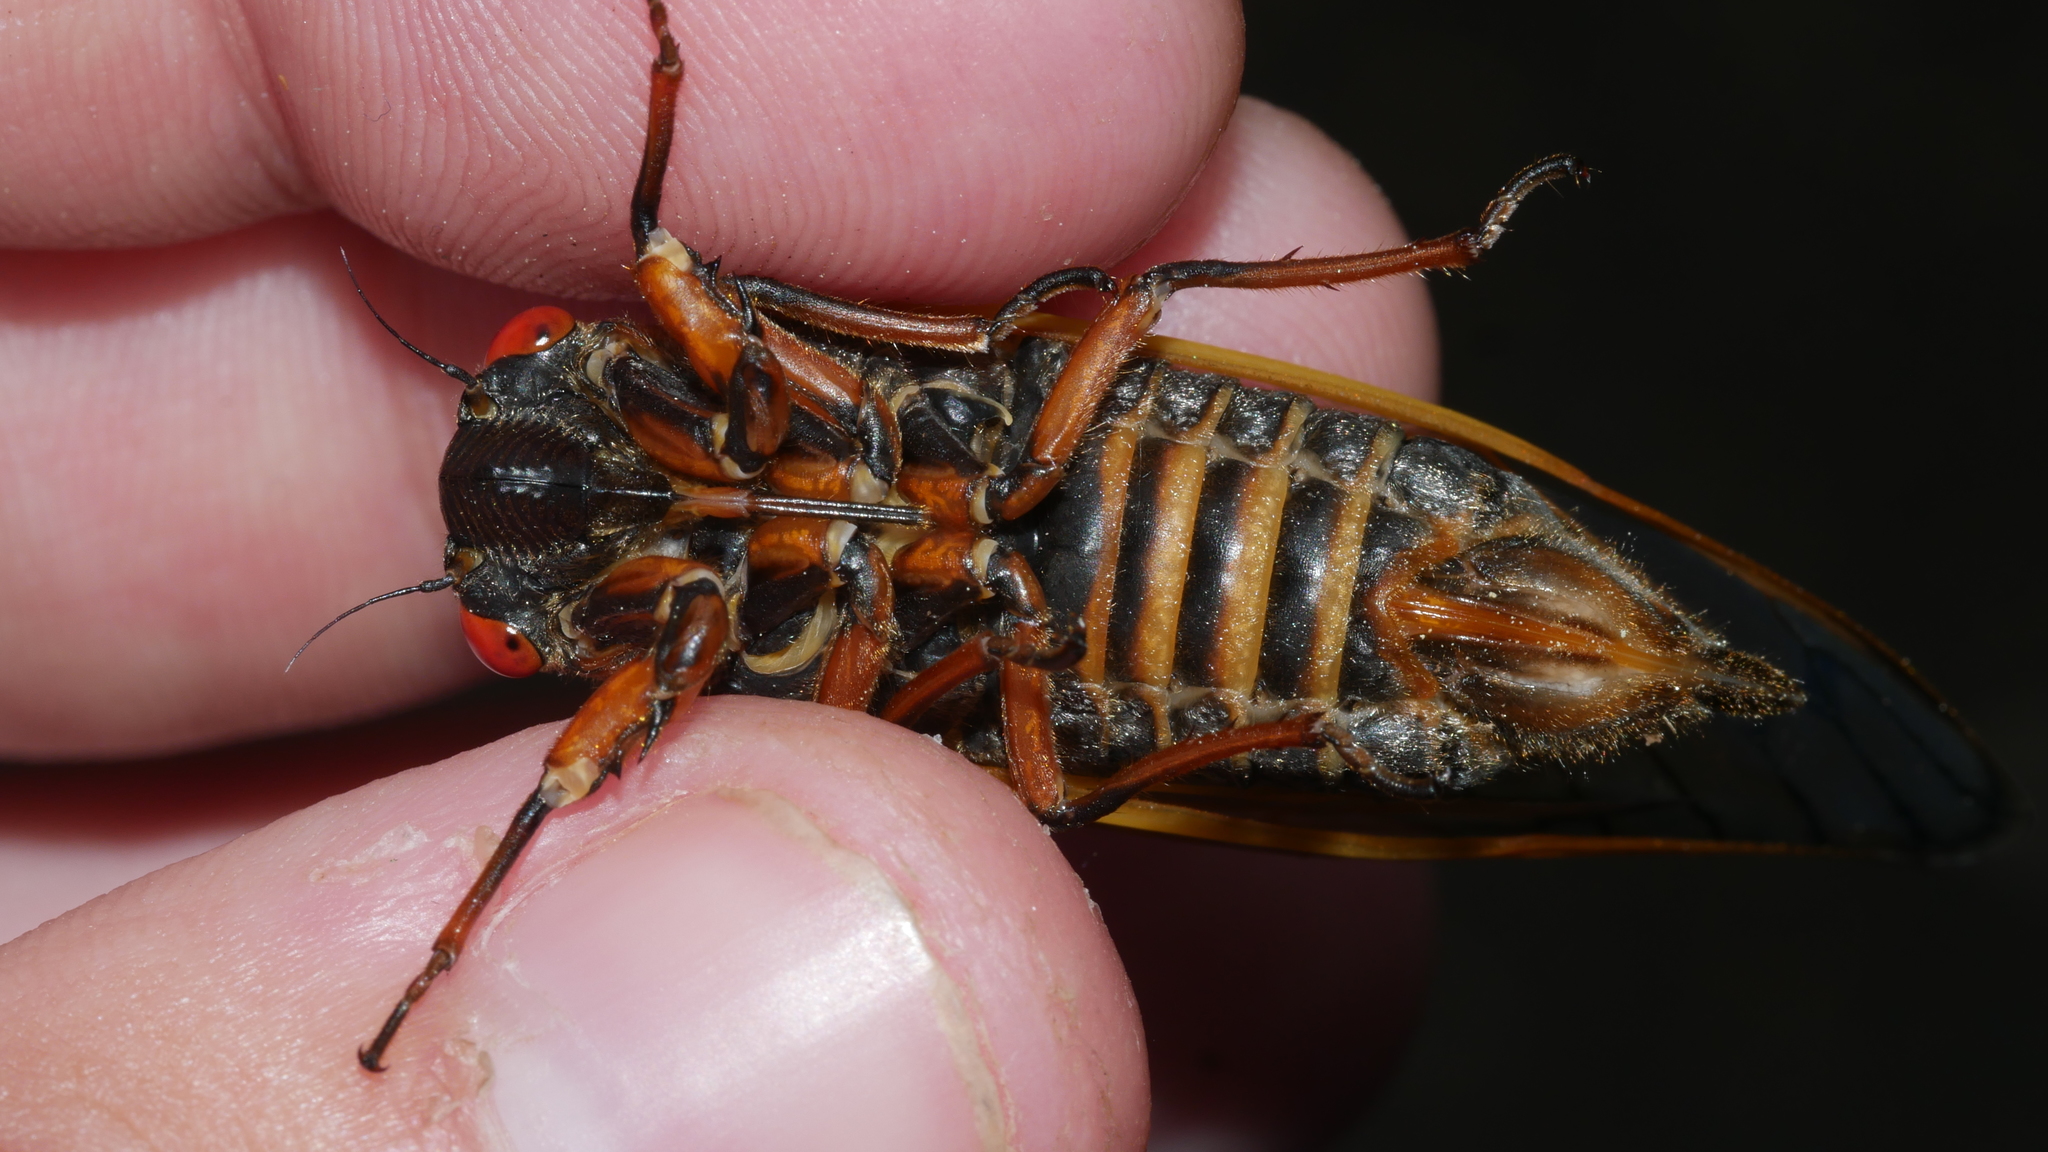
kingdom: Animalia
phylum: Arthropoda
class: Insecta
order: Hemiptera
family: Cicadidae
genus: Magicicada
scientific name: Magicicada septendecim
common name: Periodical cicada
